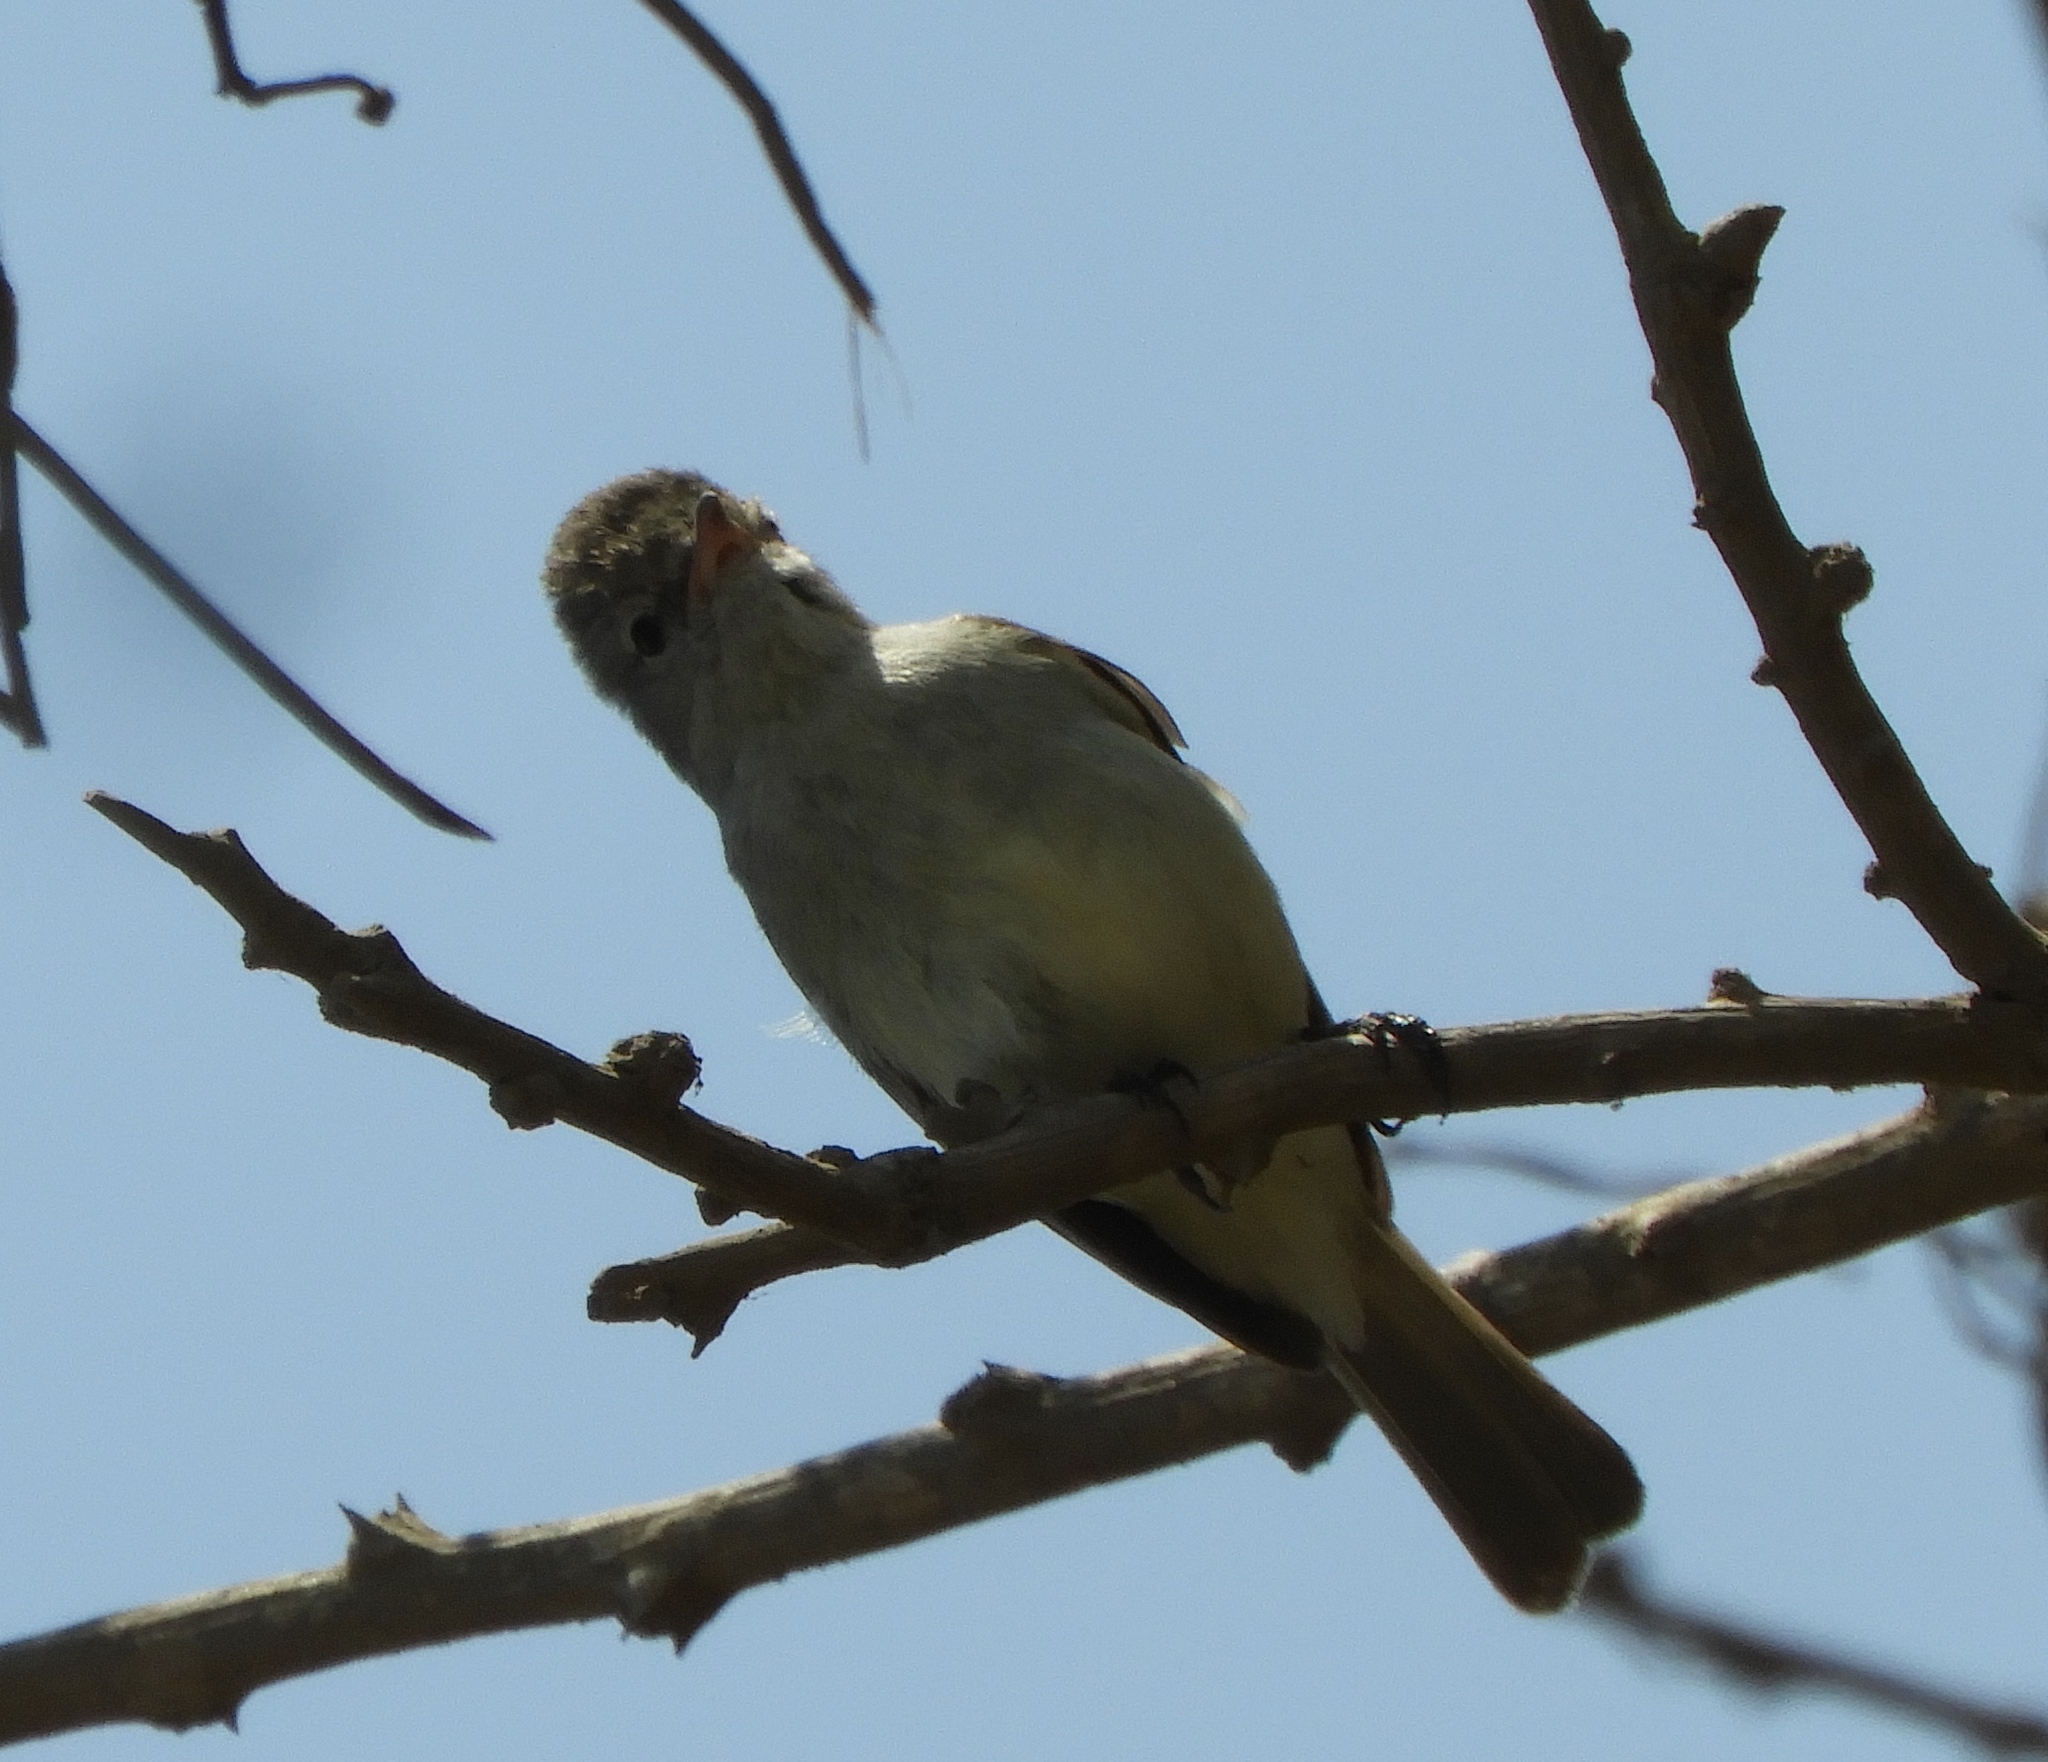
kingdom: Animalia
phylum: Chordata
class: Aves
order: Passeriformes
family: Tyrannidae
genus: Camptostoma
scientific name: Camptostoma imberbe
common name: Northern beardless-tyrannulet
